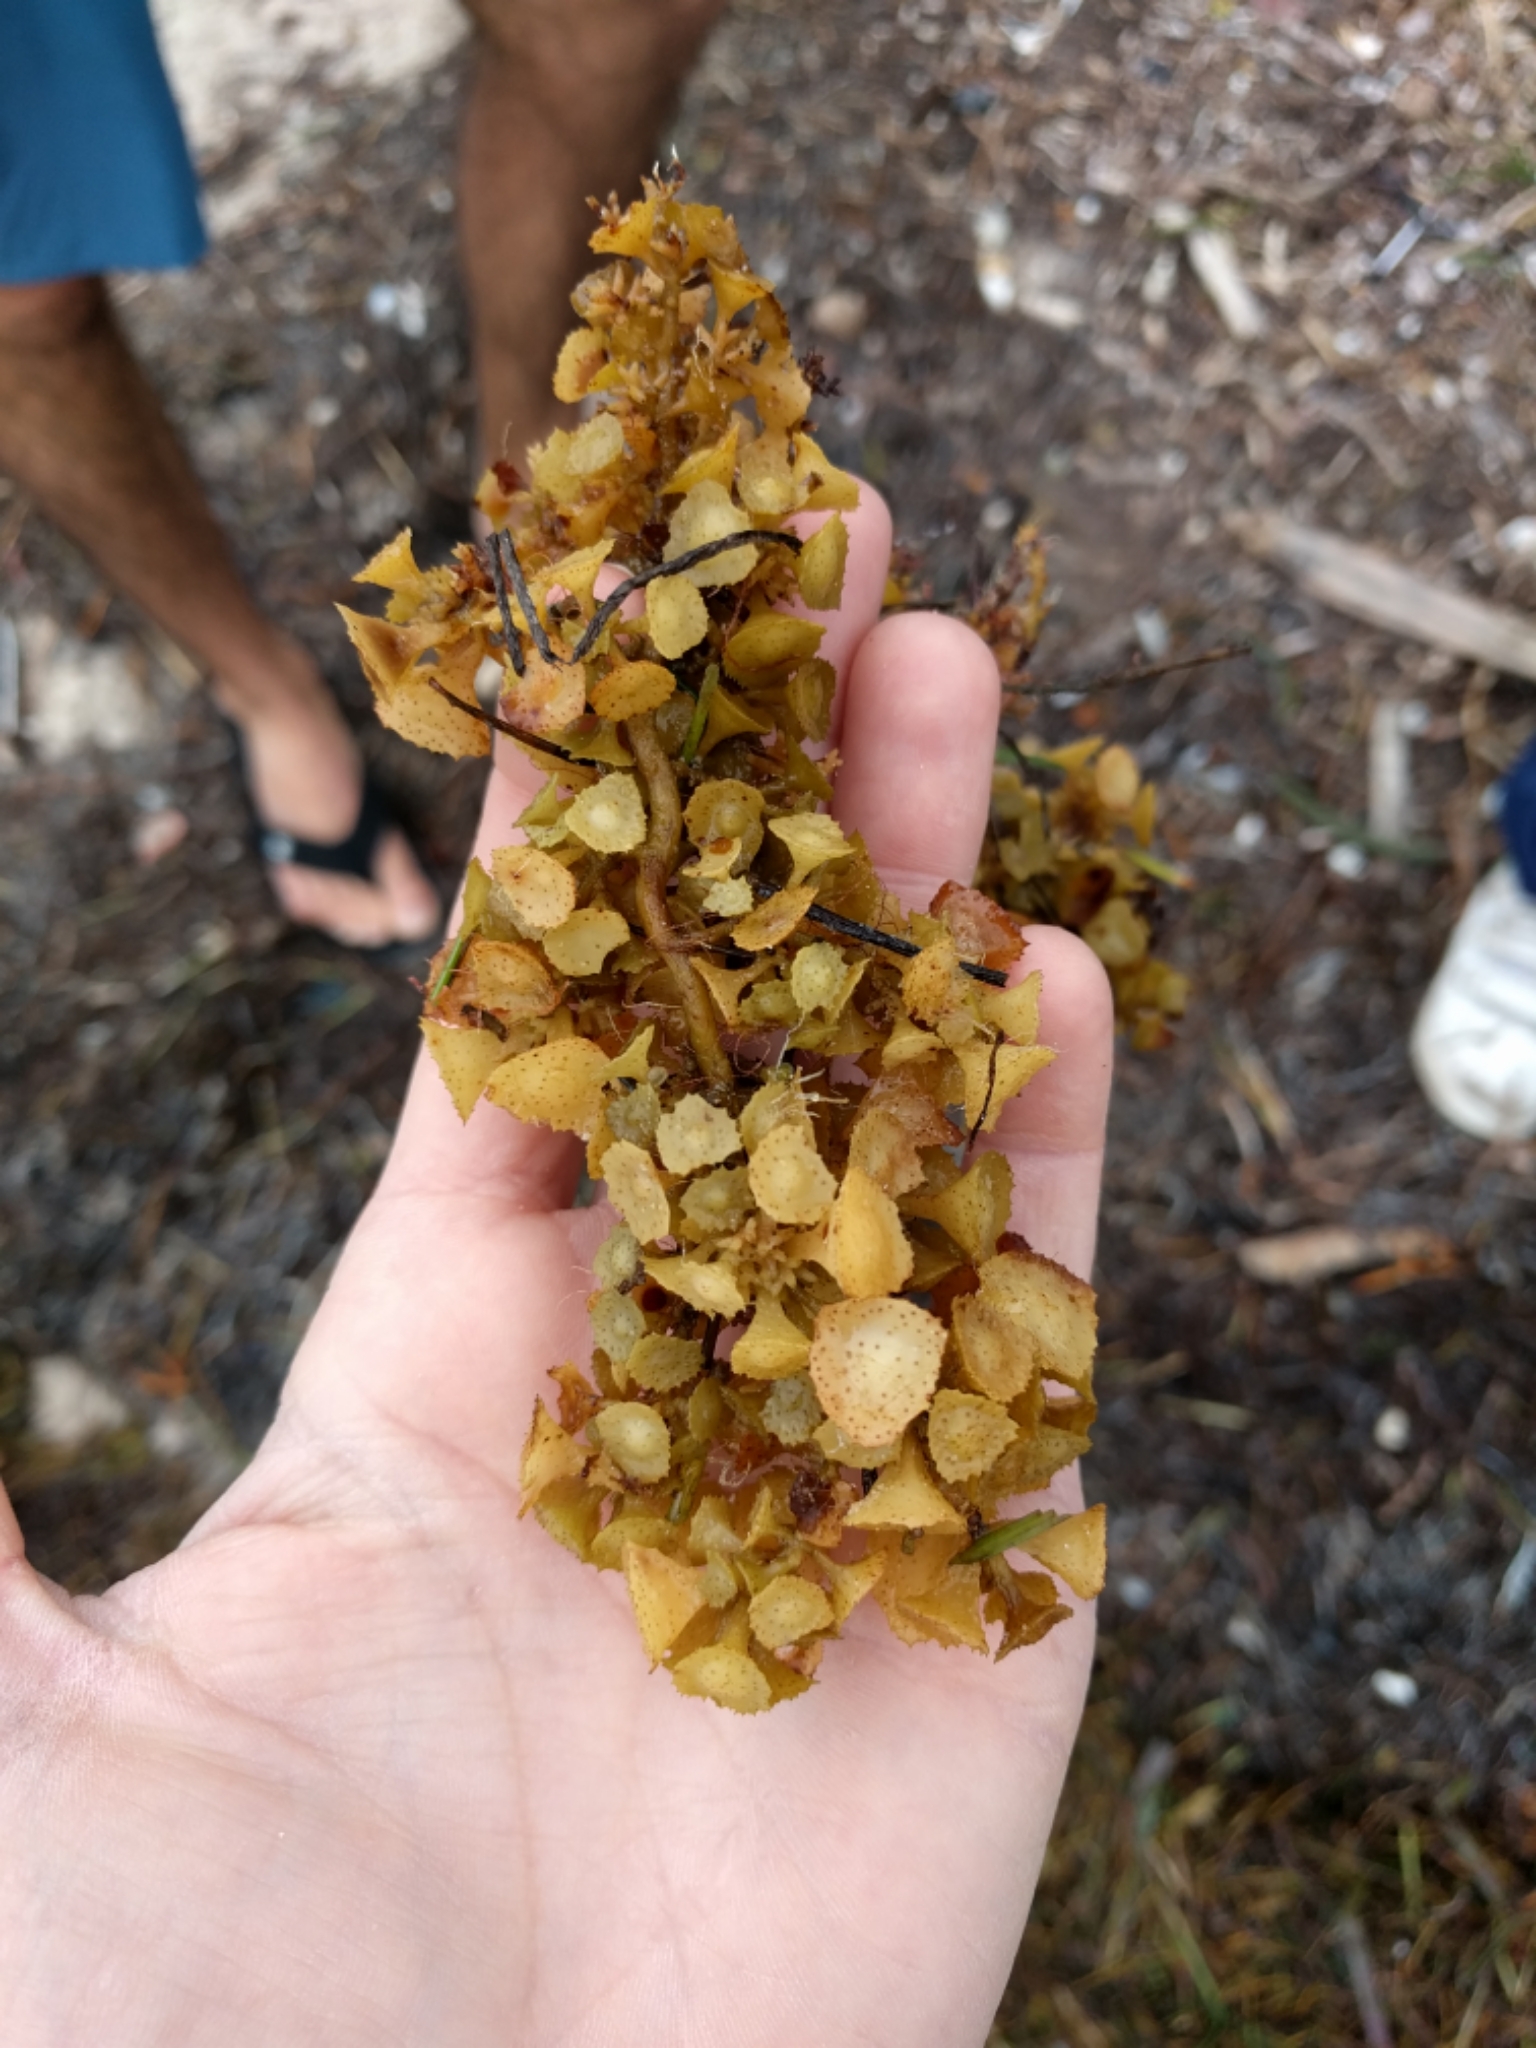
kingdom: Chromista
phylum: Ochrophyta
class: Phaeophyceae
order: Fucales
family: Sargassaceae
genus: Turbinaria
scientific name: Turbinaria turbinata
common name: Blistered saucer leaf algae
